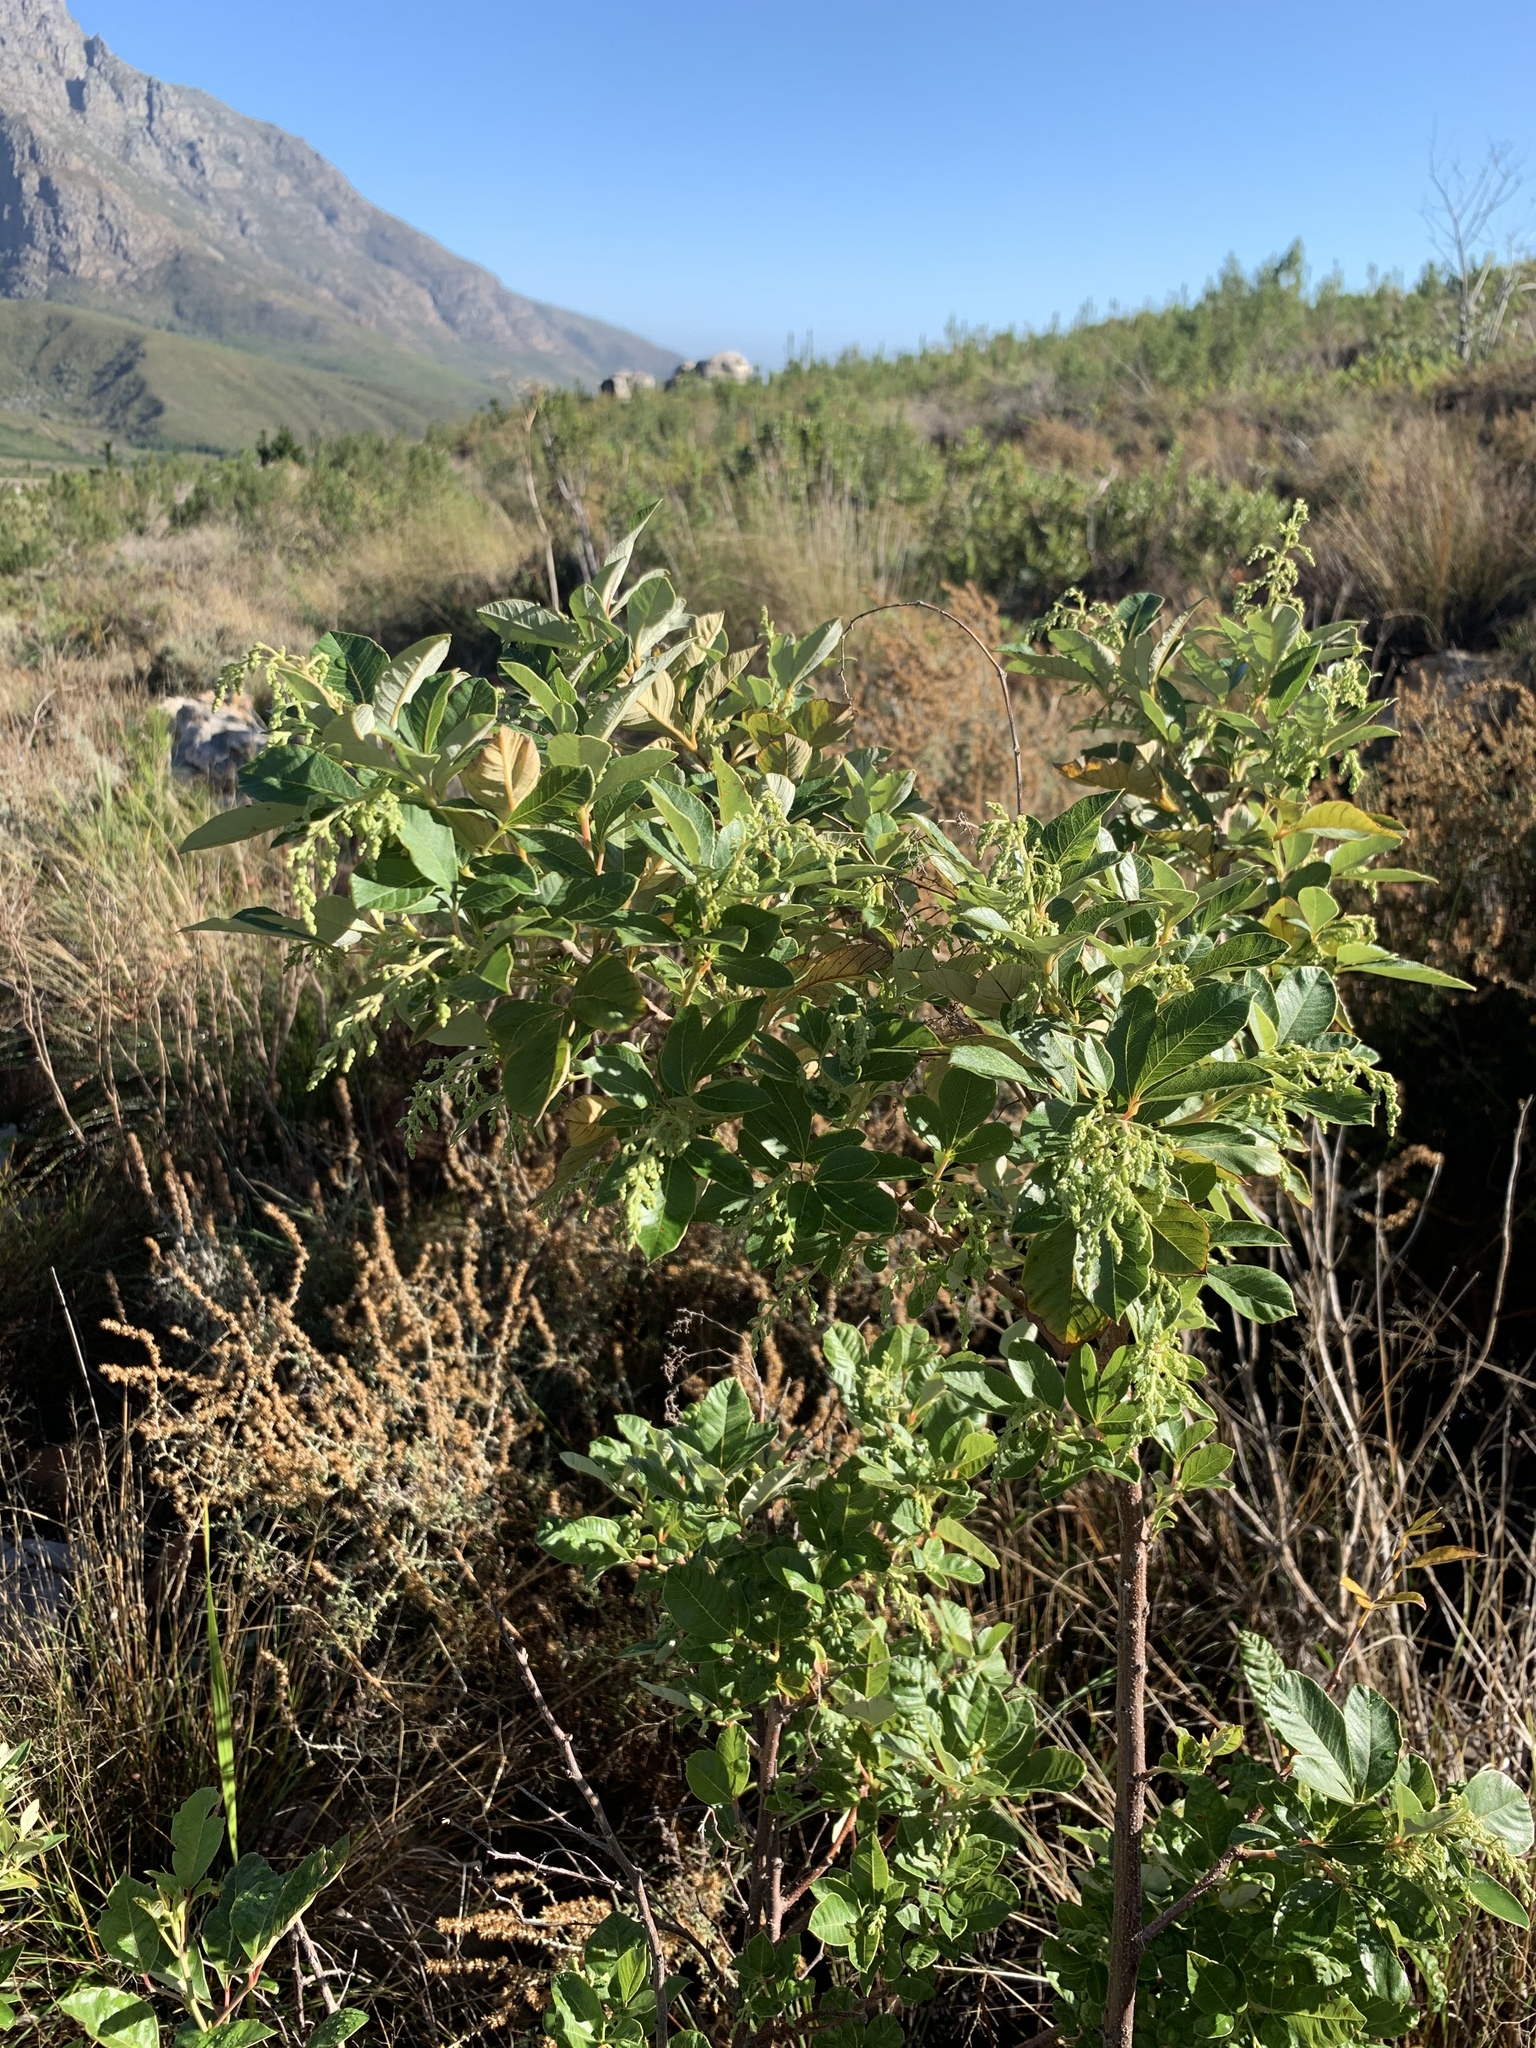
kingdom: Plantae
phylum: Tracheophyta
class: Magnoliopsida
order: Sapindales
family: Anacardiaceae
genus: Searsia
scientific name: Searsia tomentosa
